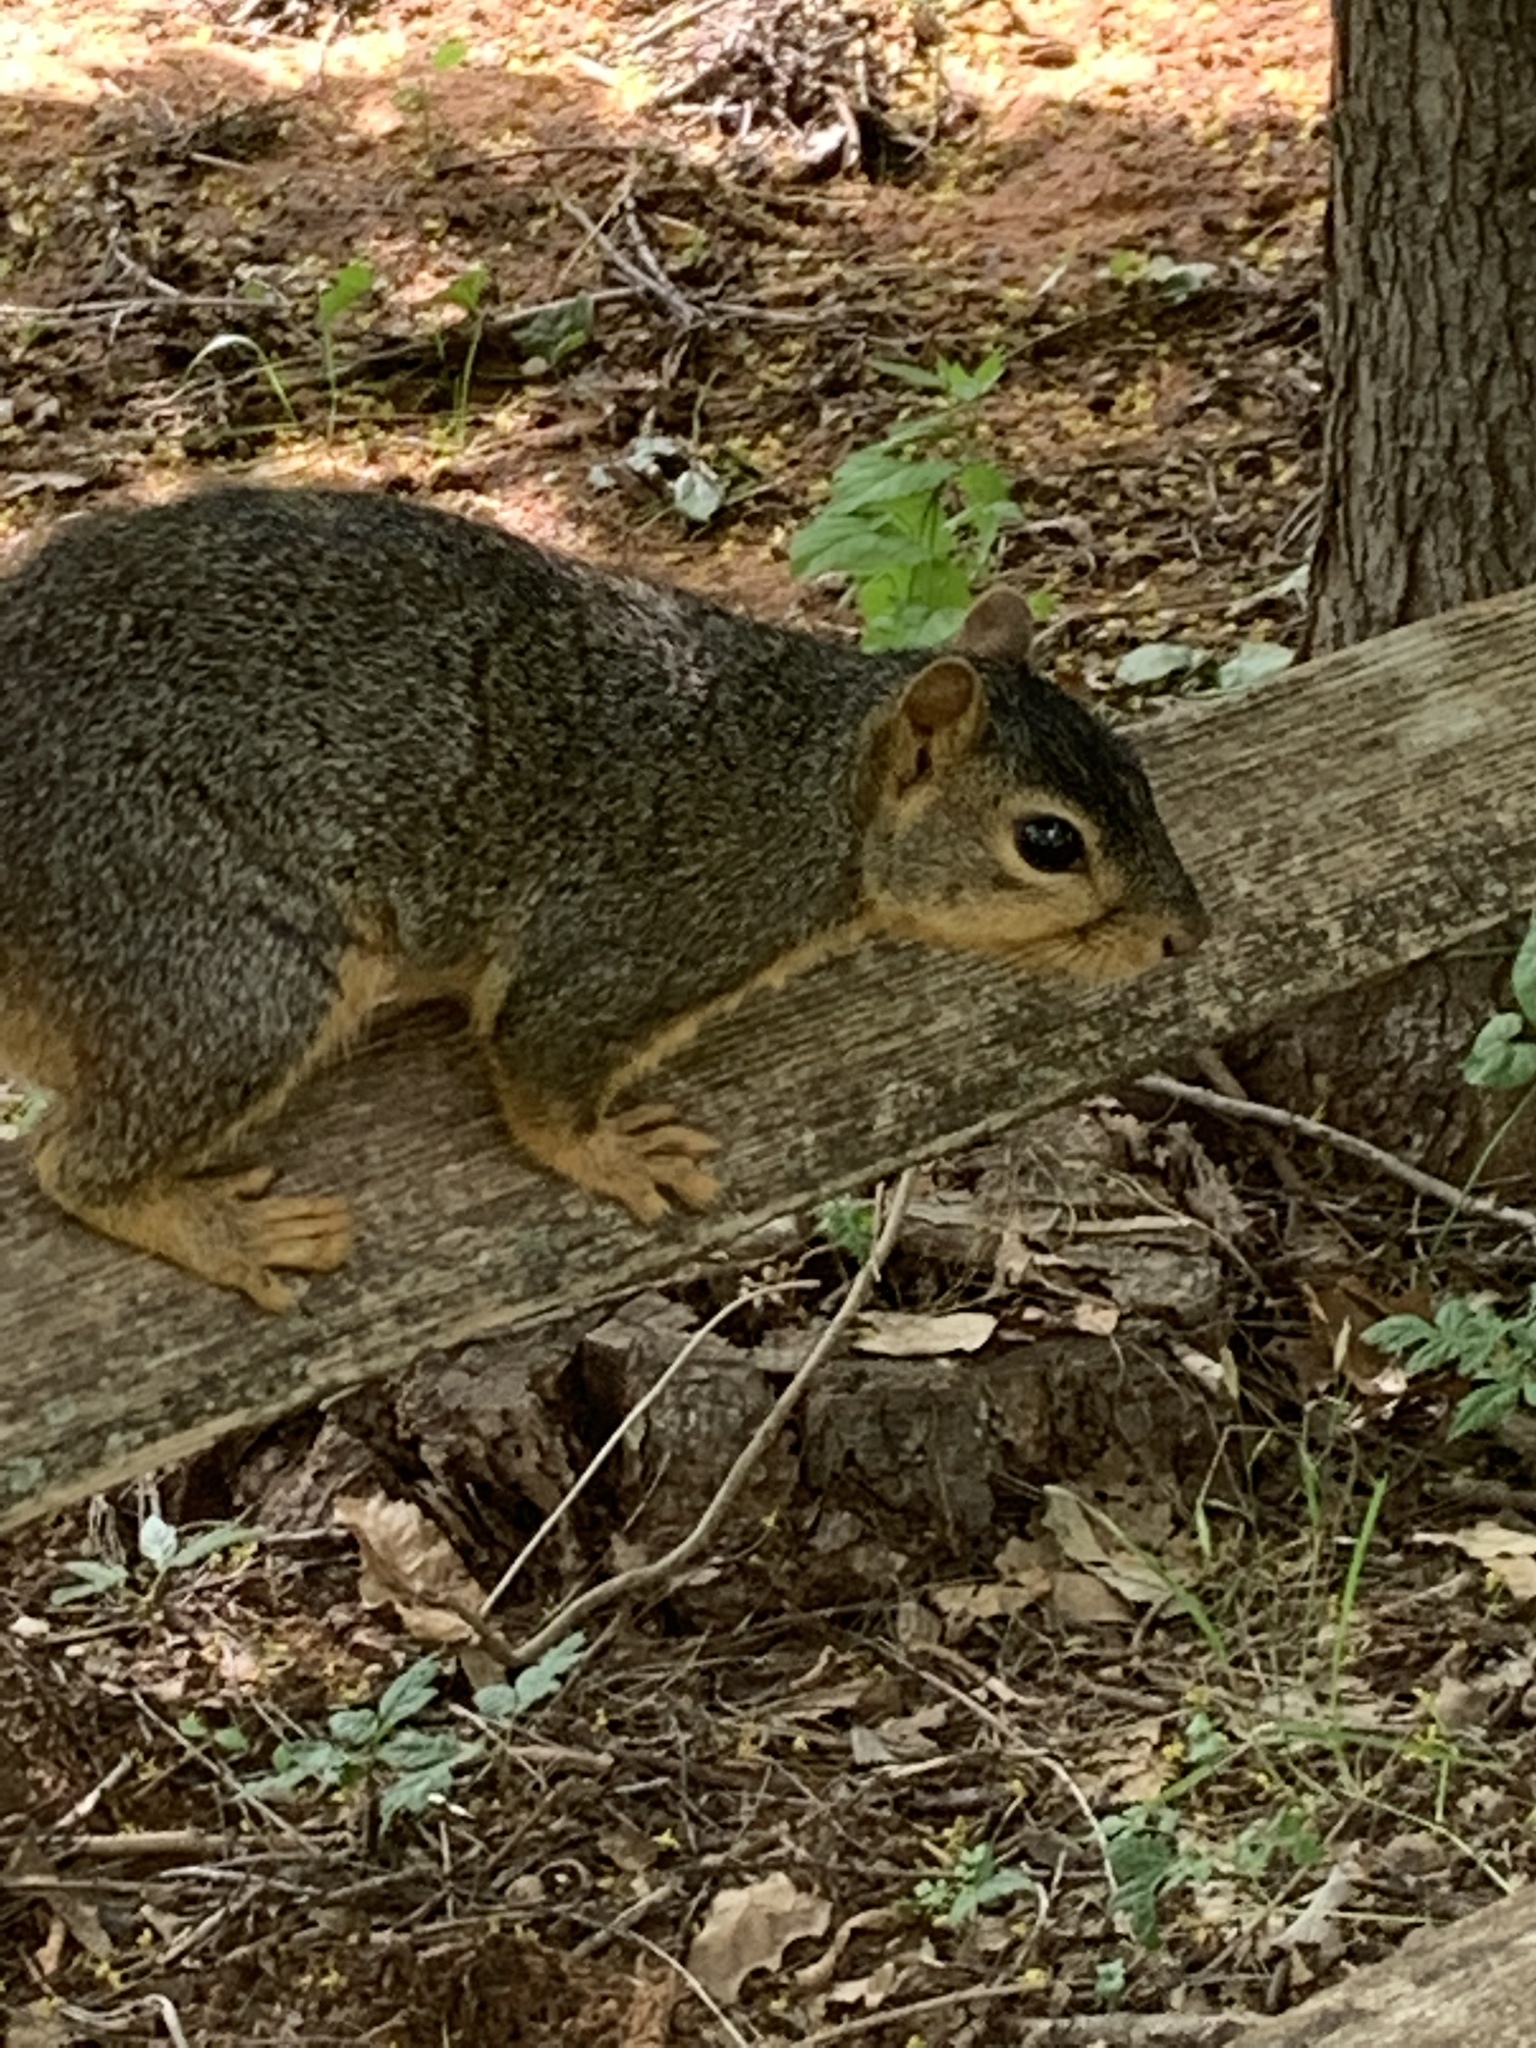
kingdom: Animalia
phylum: Chordata
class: Mammalia
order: Rodentia
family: Sciuridae
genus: Sciurus
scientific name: Sciurus niger
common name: Fox squirrel
